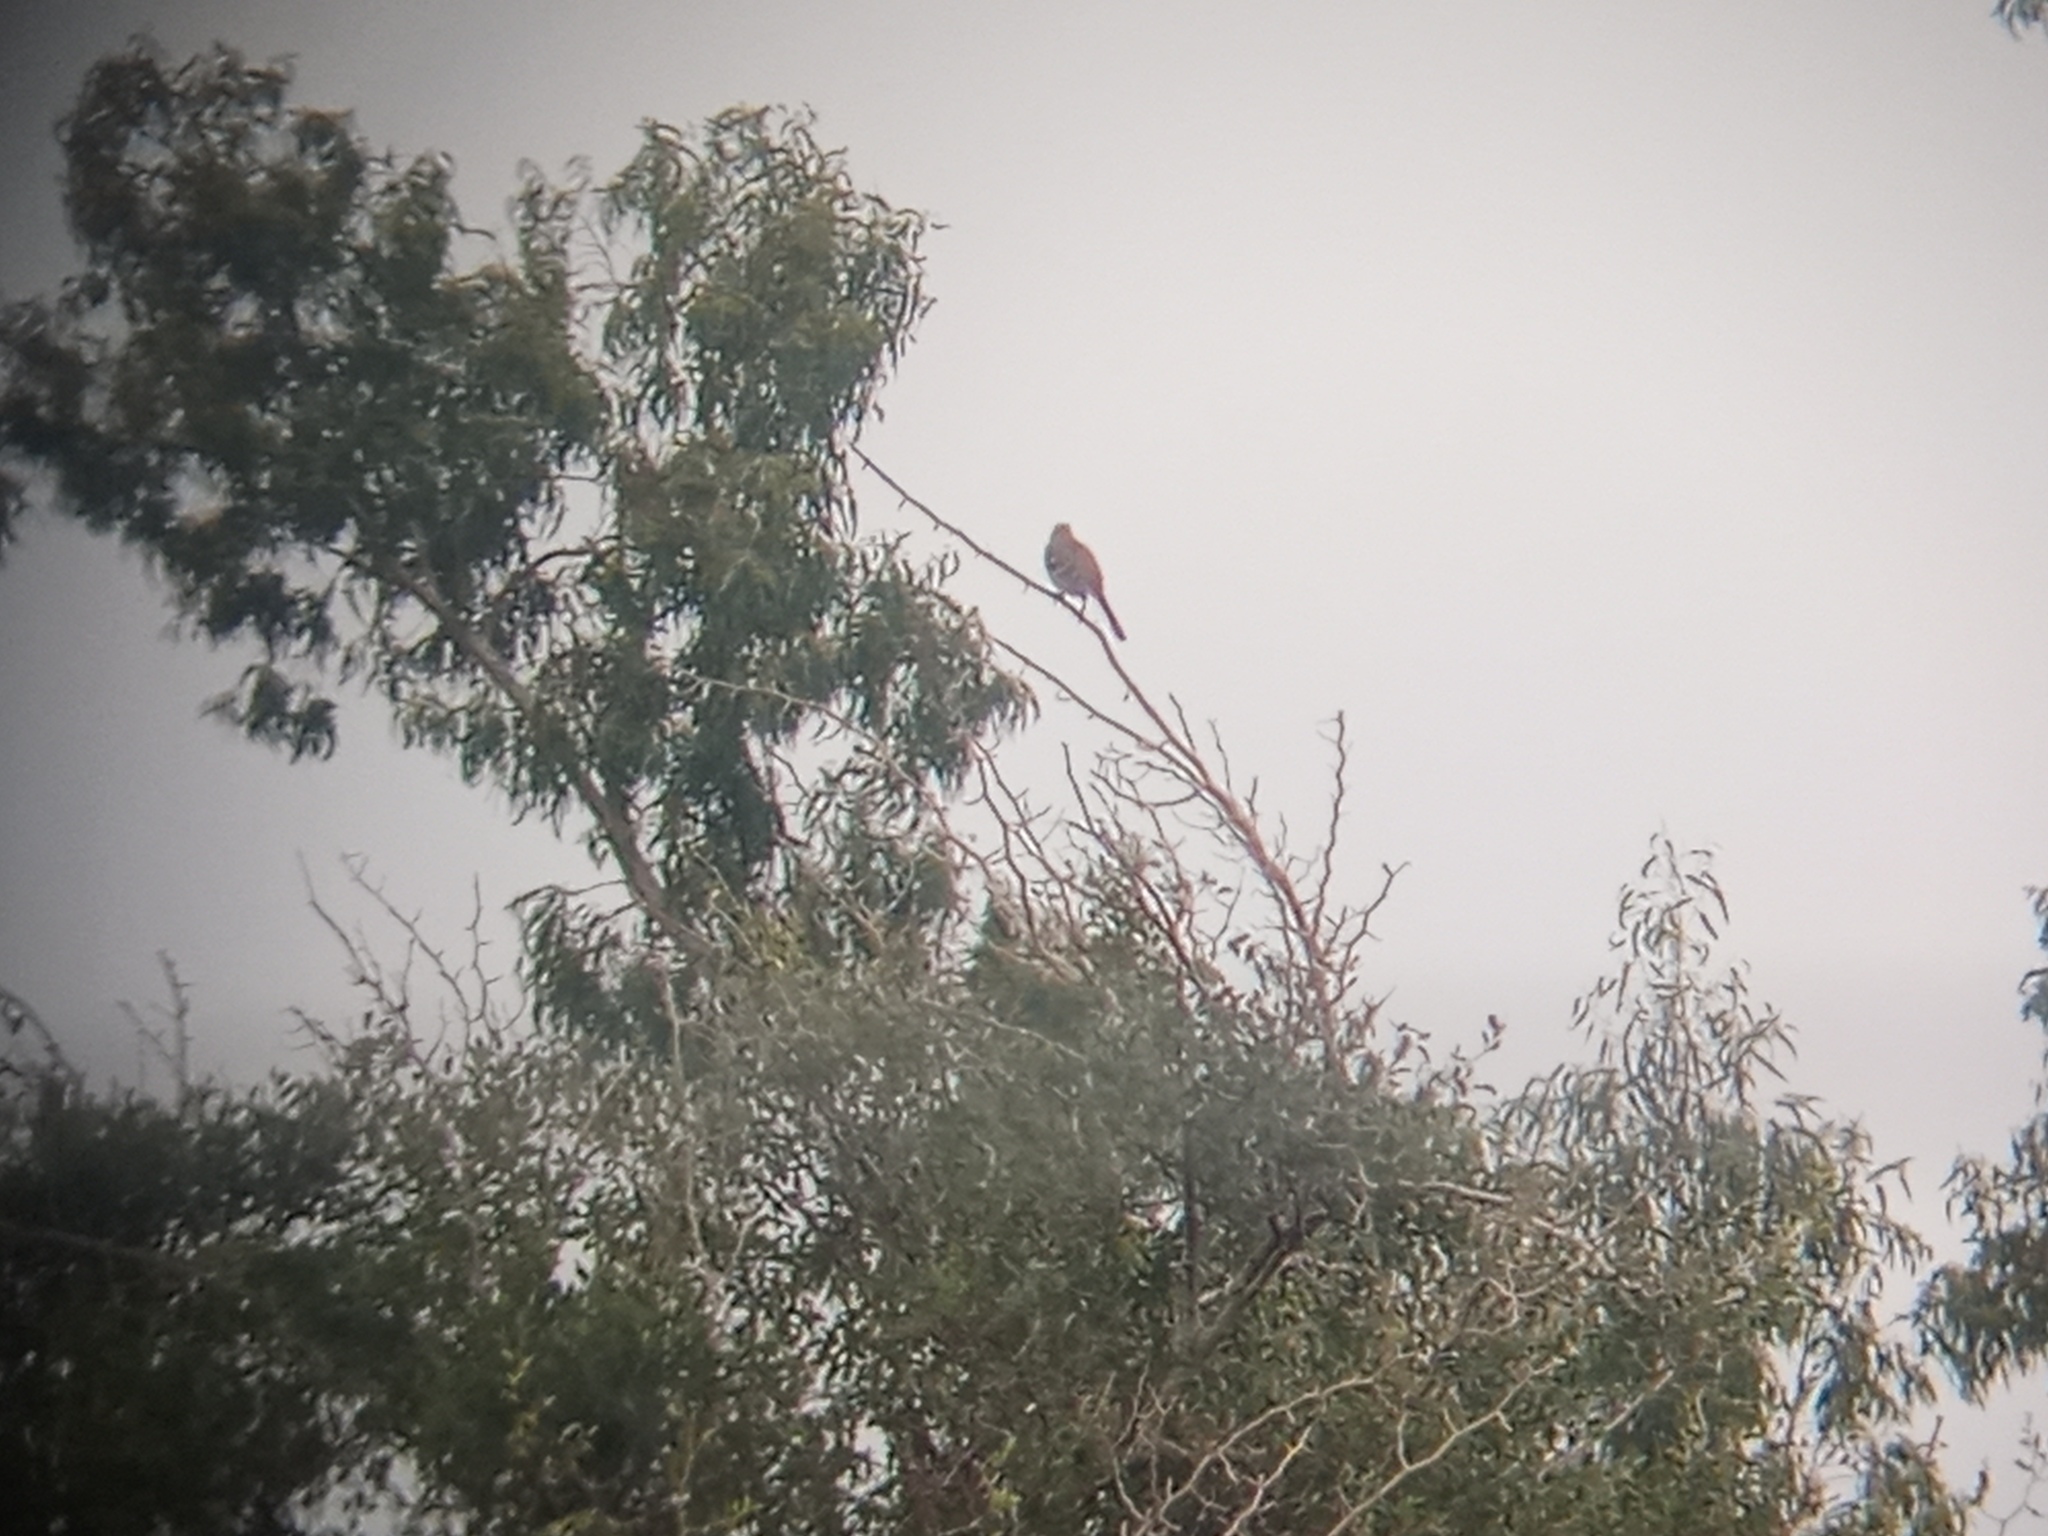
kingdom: Animalia
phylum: Chordata
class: Aves
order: Passeriformes
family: Mimidae
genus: Mimus
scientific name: Mimus triurus
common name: White-banded mockingbird
